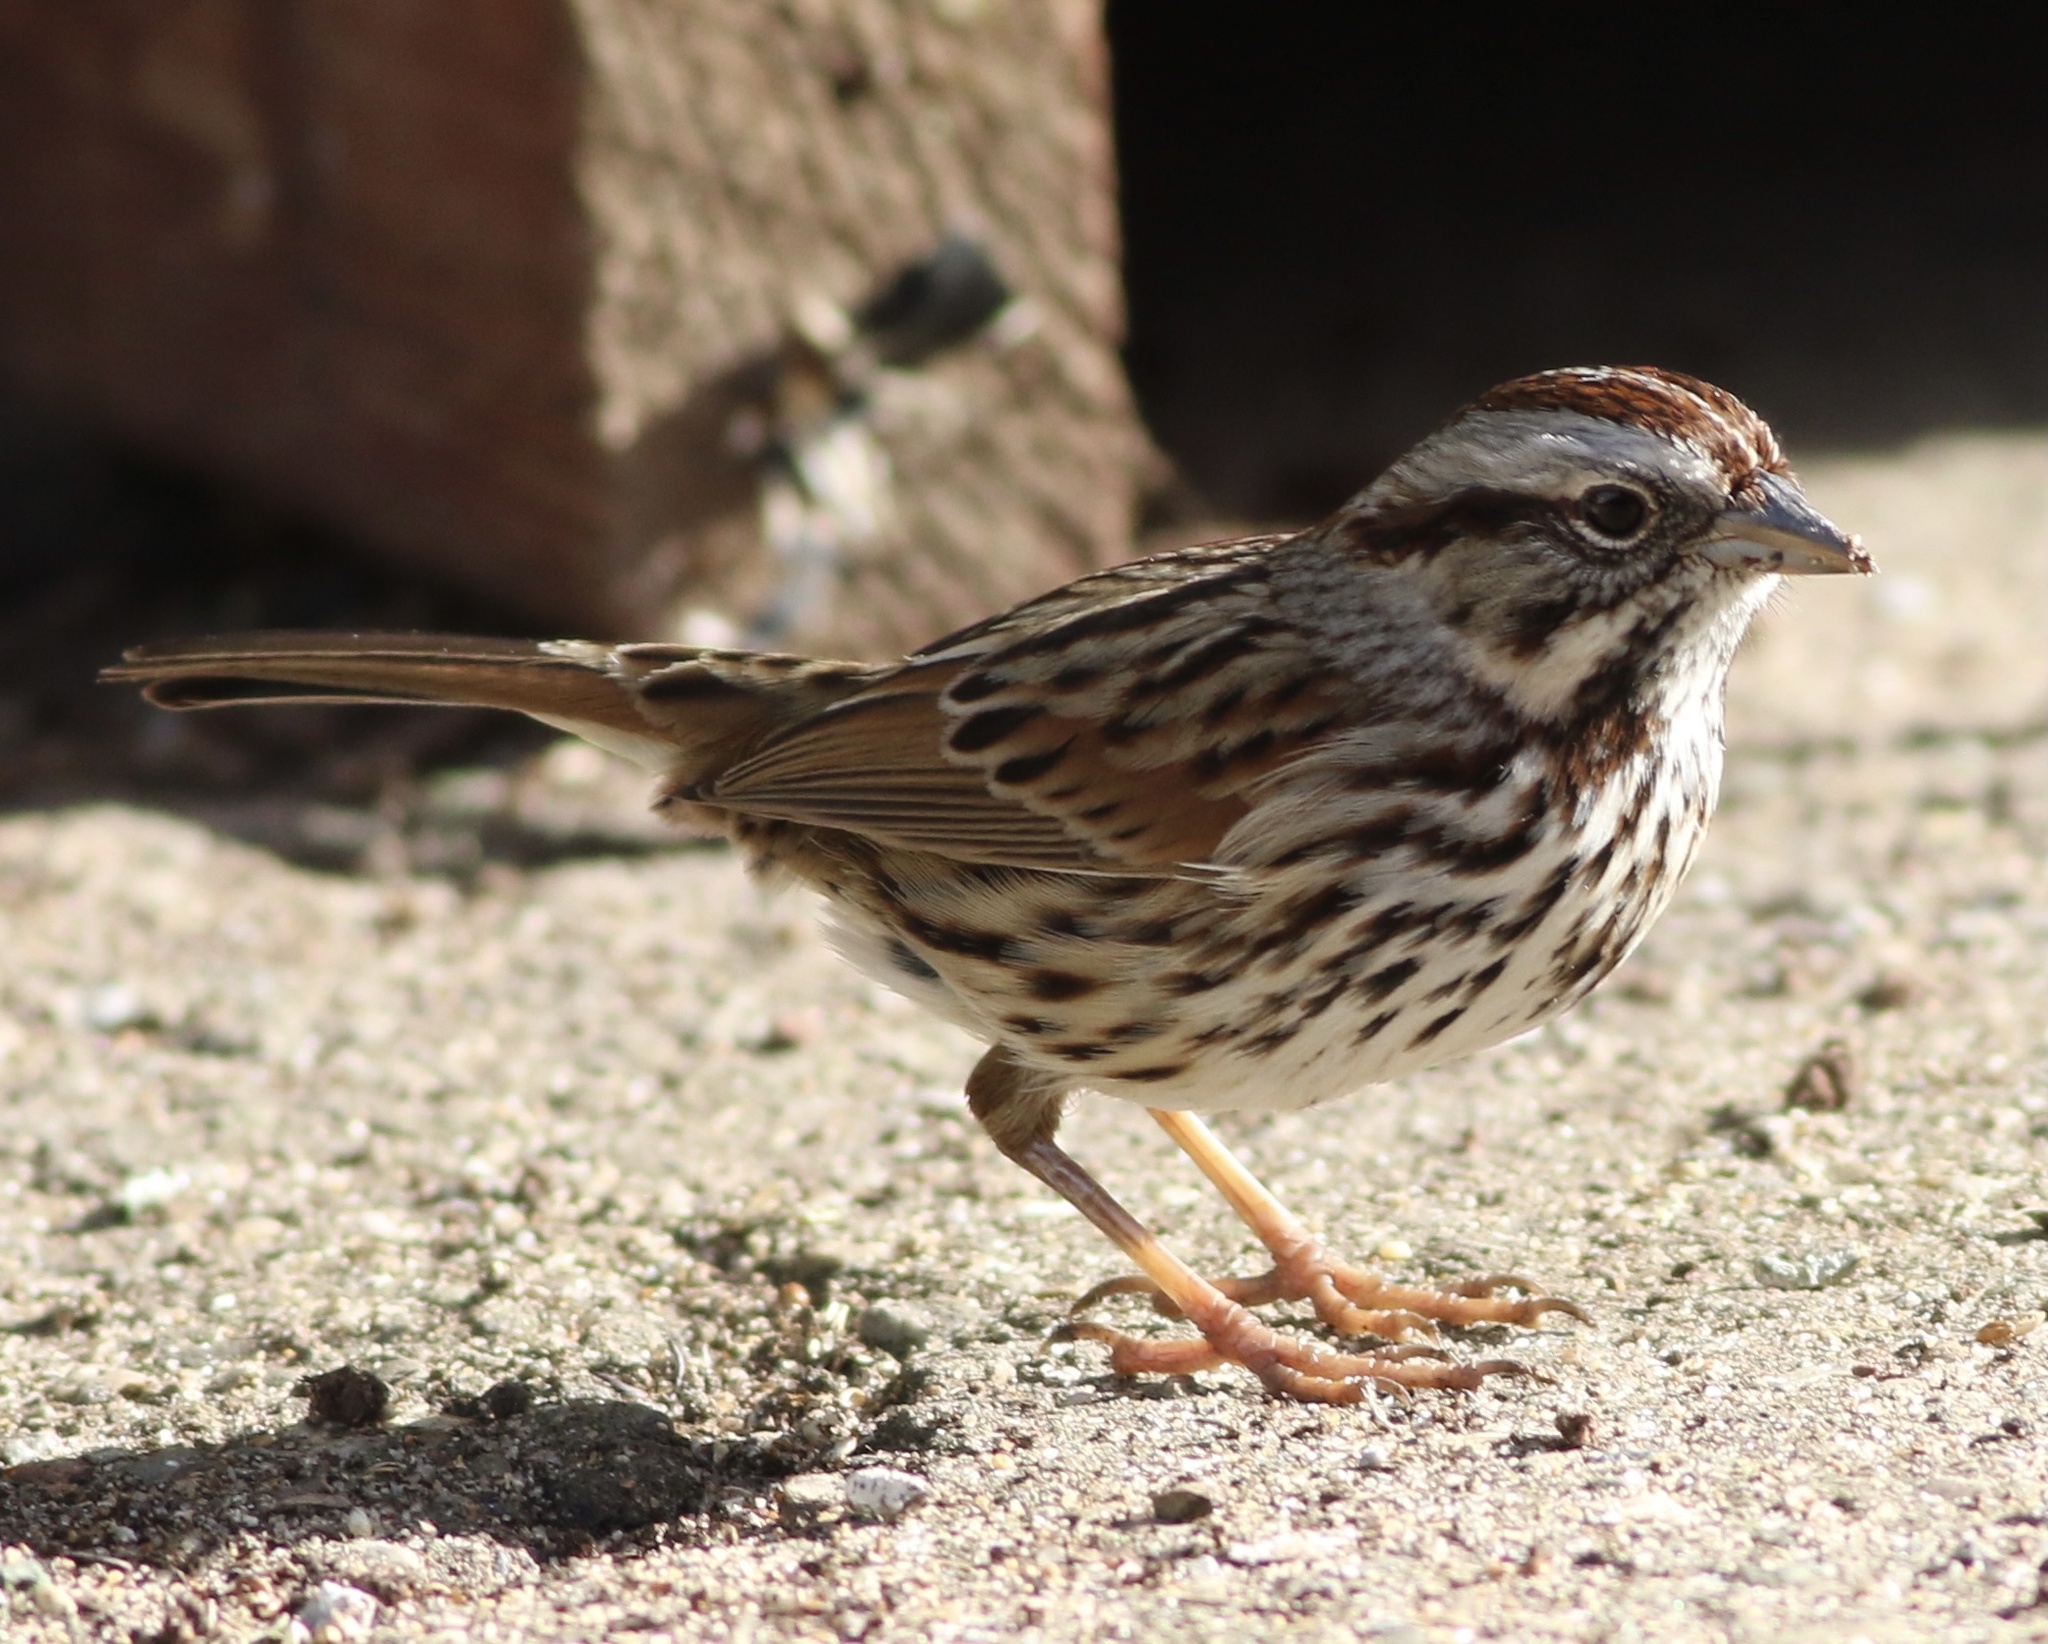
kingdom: Animalia
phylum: Chordata
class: Aves
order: Passeriformes
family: Passerellidae
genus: Melospiza
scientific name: Melospiza melodia
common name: Song sparrow
